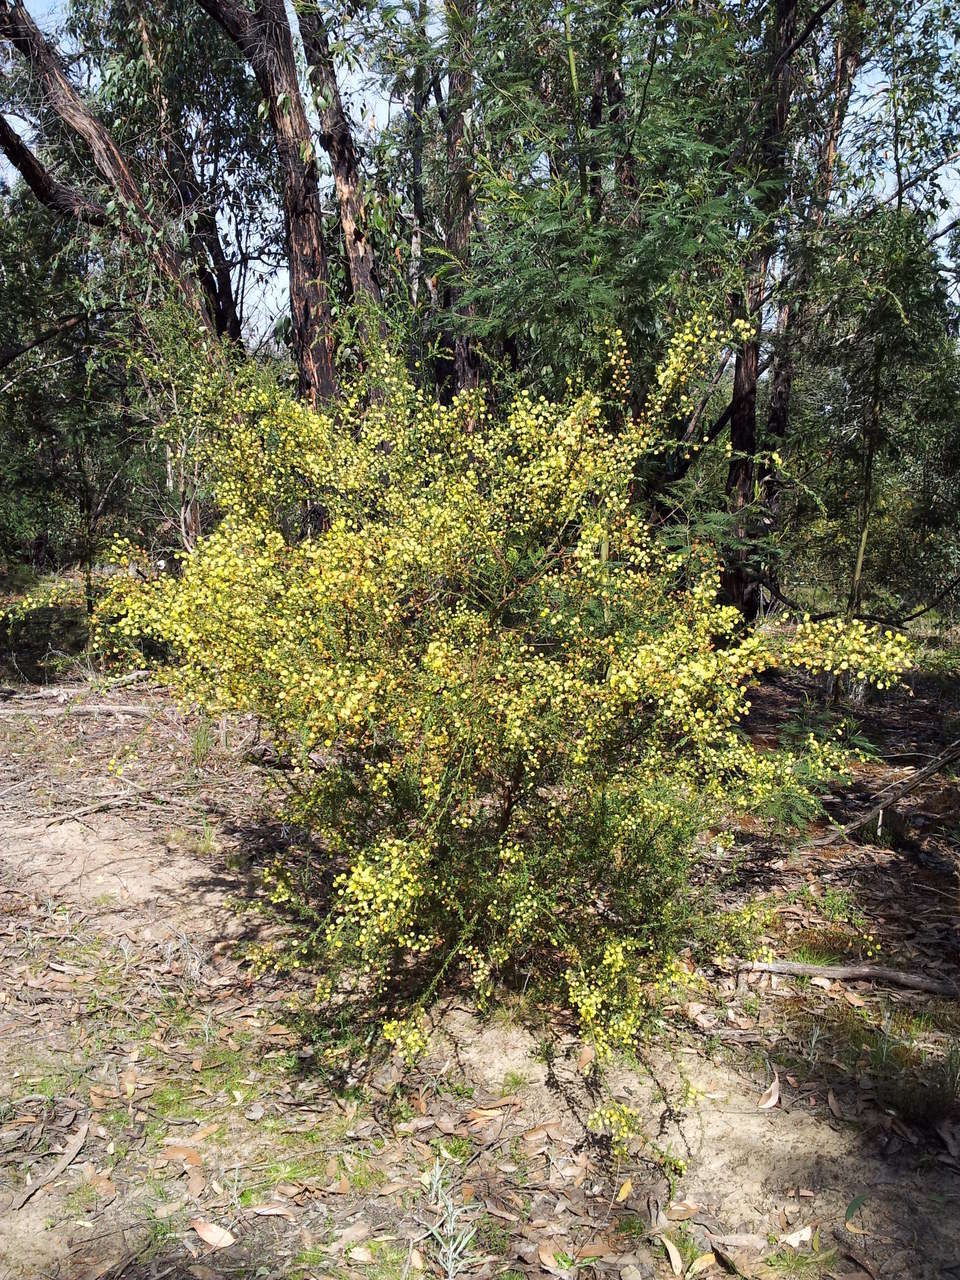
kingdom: Plantae
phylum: Tracheophyta
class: Magnoliopsida
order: Fabales
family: Fabaceae
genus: Acacia
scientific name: Acacia paradoxa
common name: Paradox acacia
